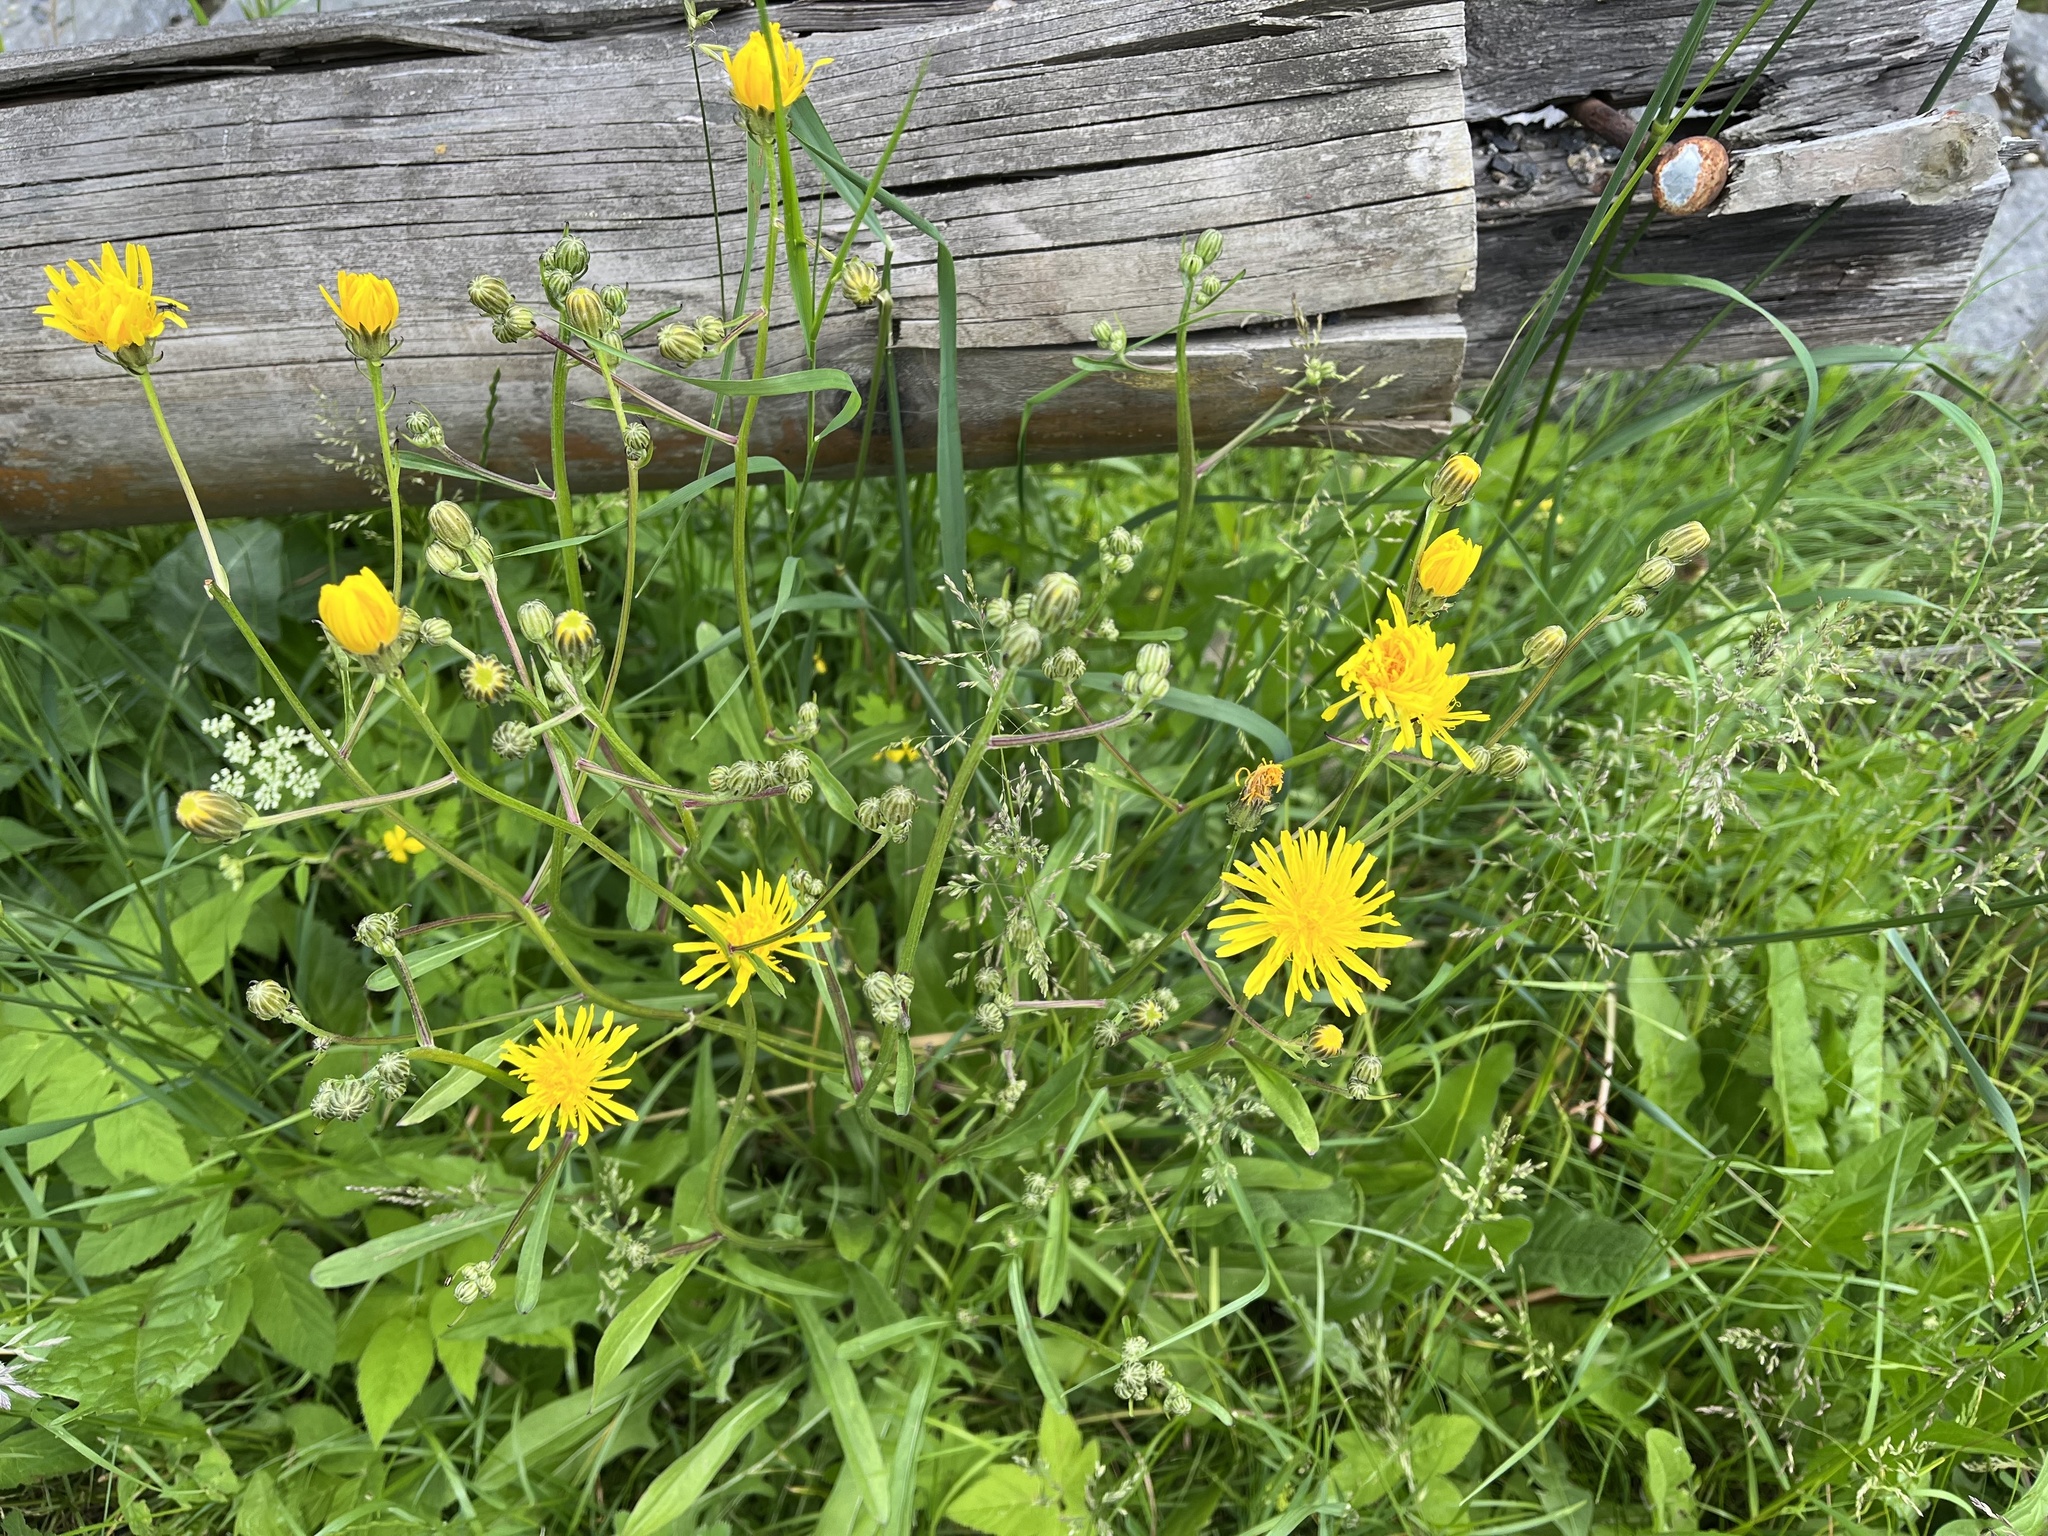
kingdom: Plantae
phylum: Tracheophyta
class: Magnoliopsida
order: Asterales
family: Asteraceae
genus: Crepis
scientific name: Crepis biennis
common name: Rough hawk's-beard
